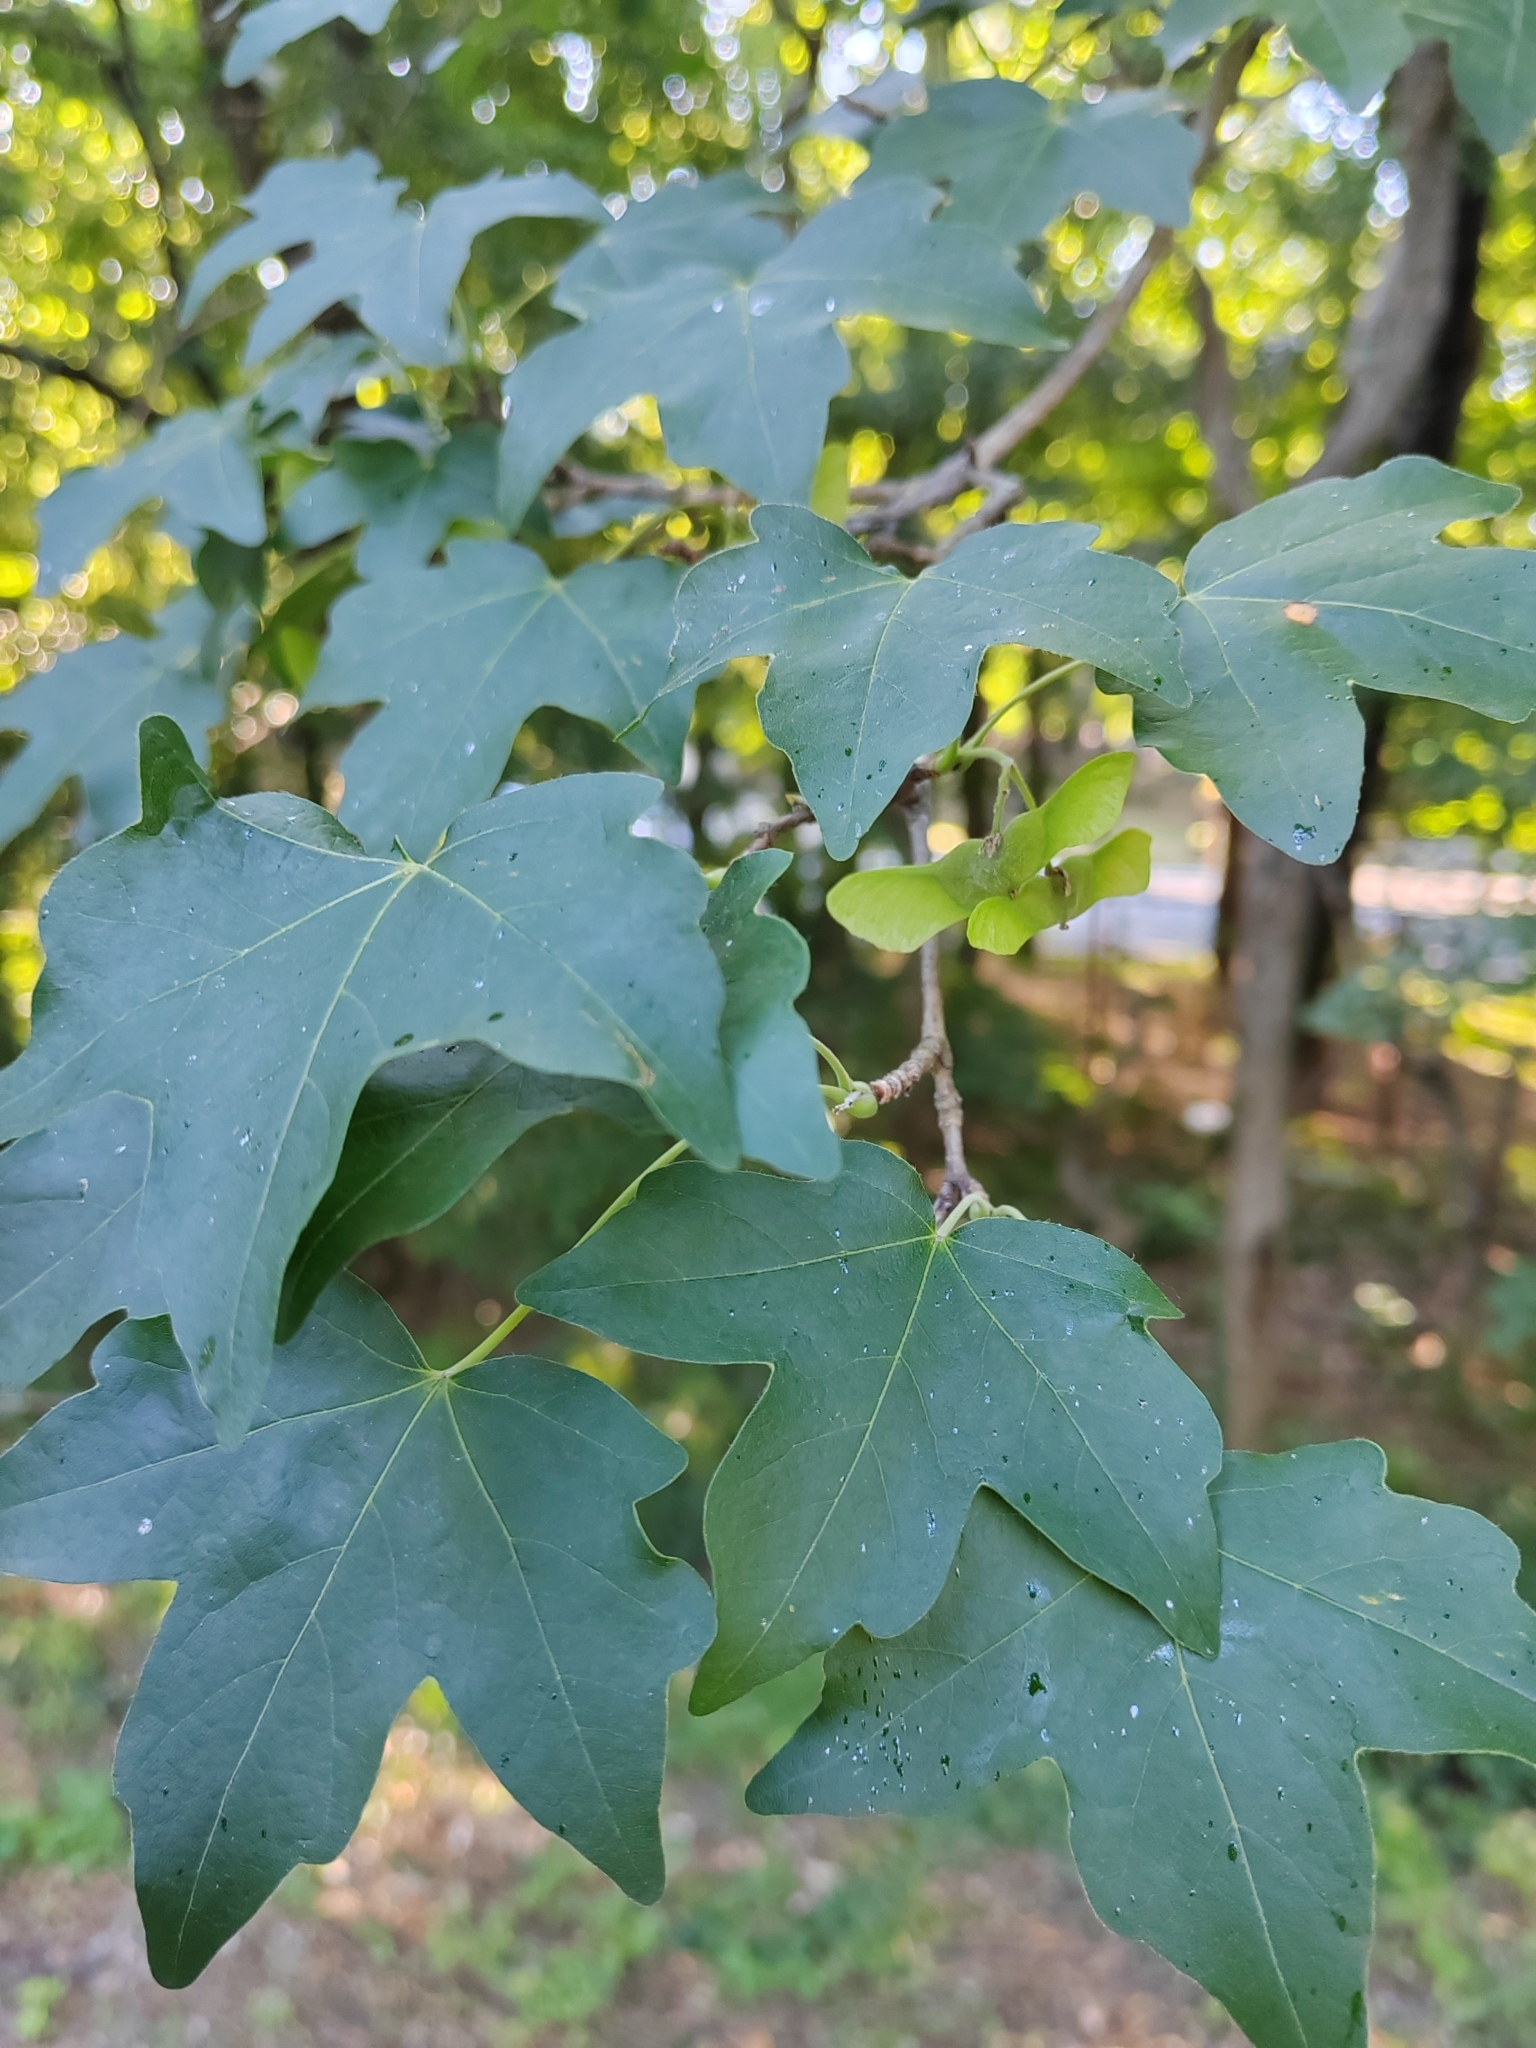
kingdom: Plantae
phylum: Tracheophyta
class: Magnoliopsida
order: Sapindales
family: Sapindaceae
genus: Acer
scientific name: Acer campestre
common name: Field maple
